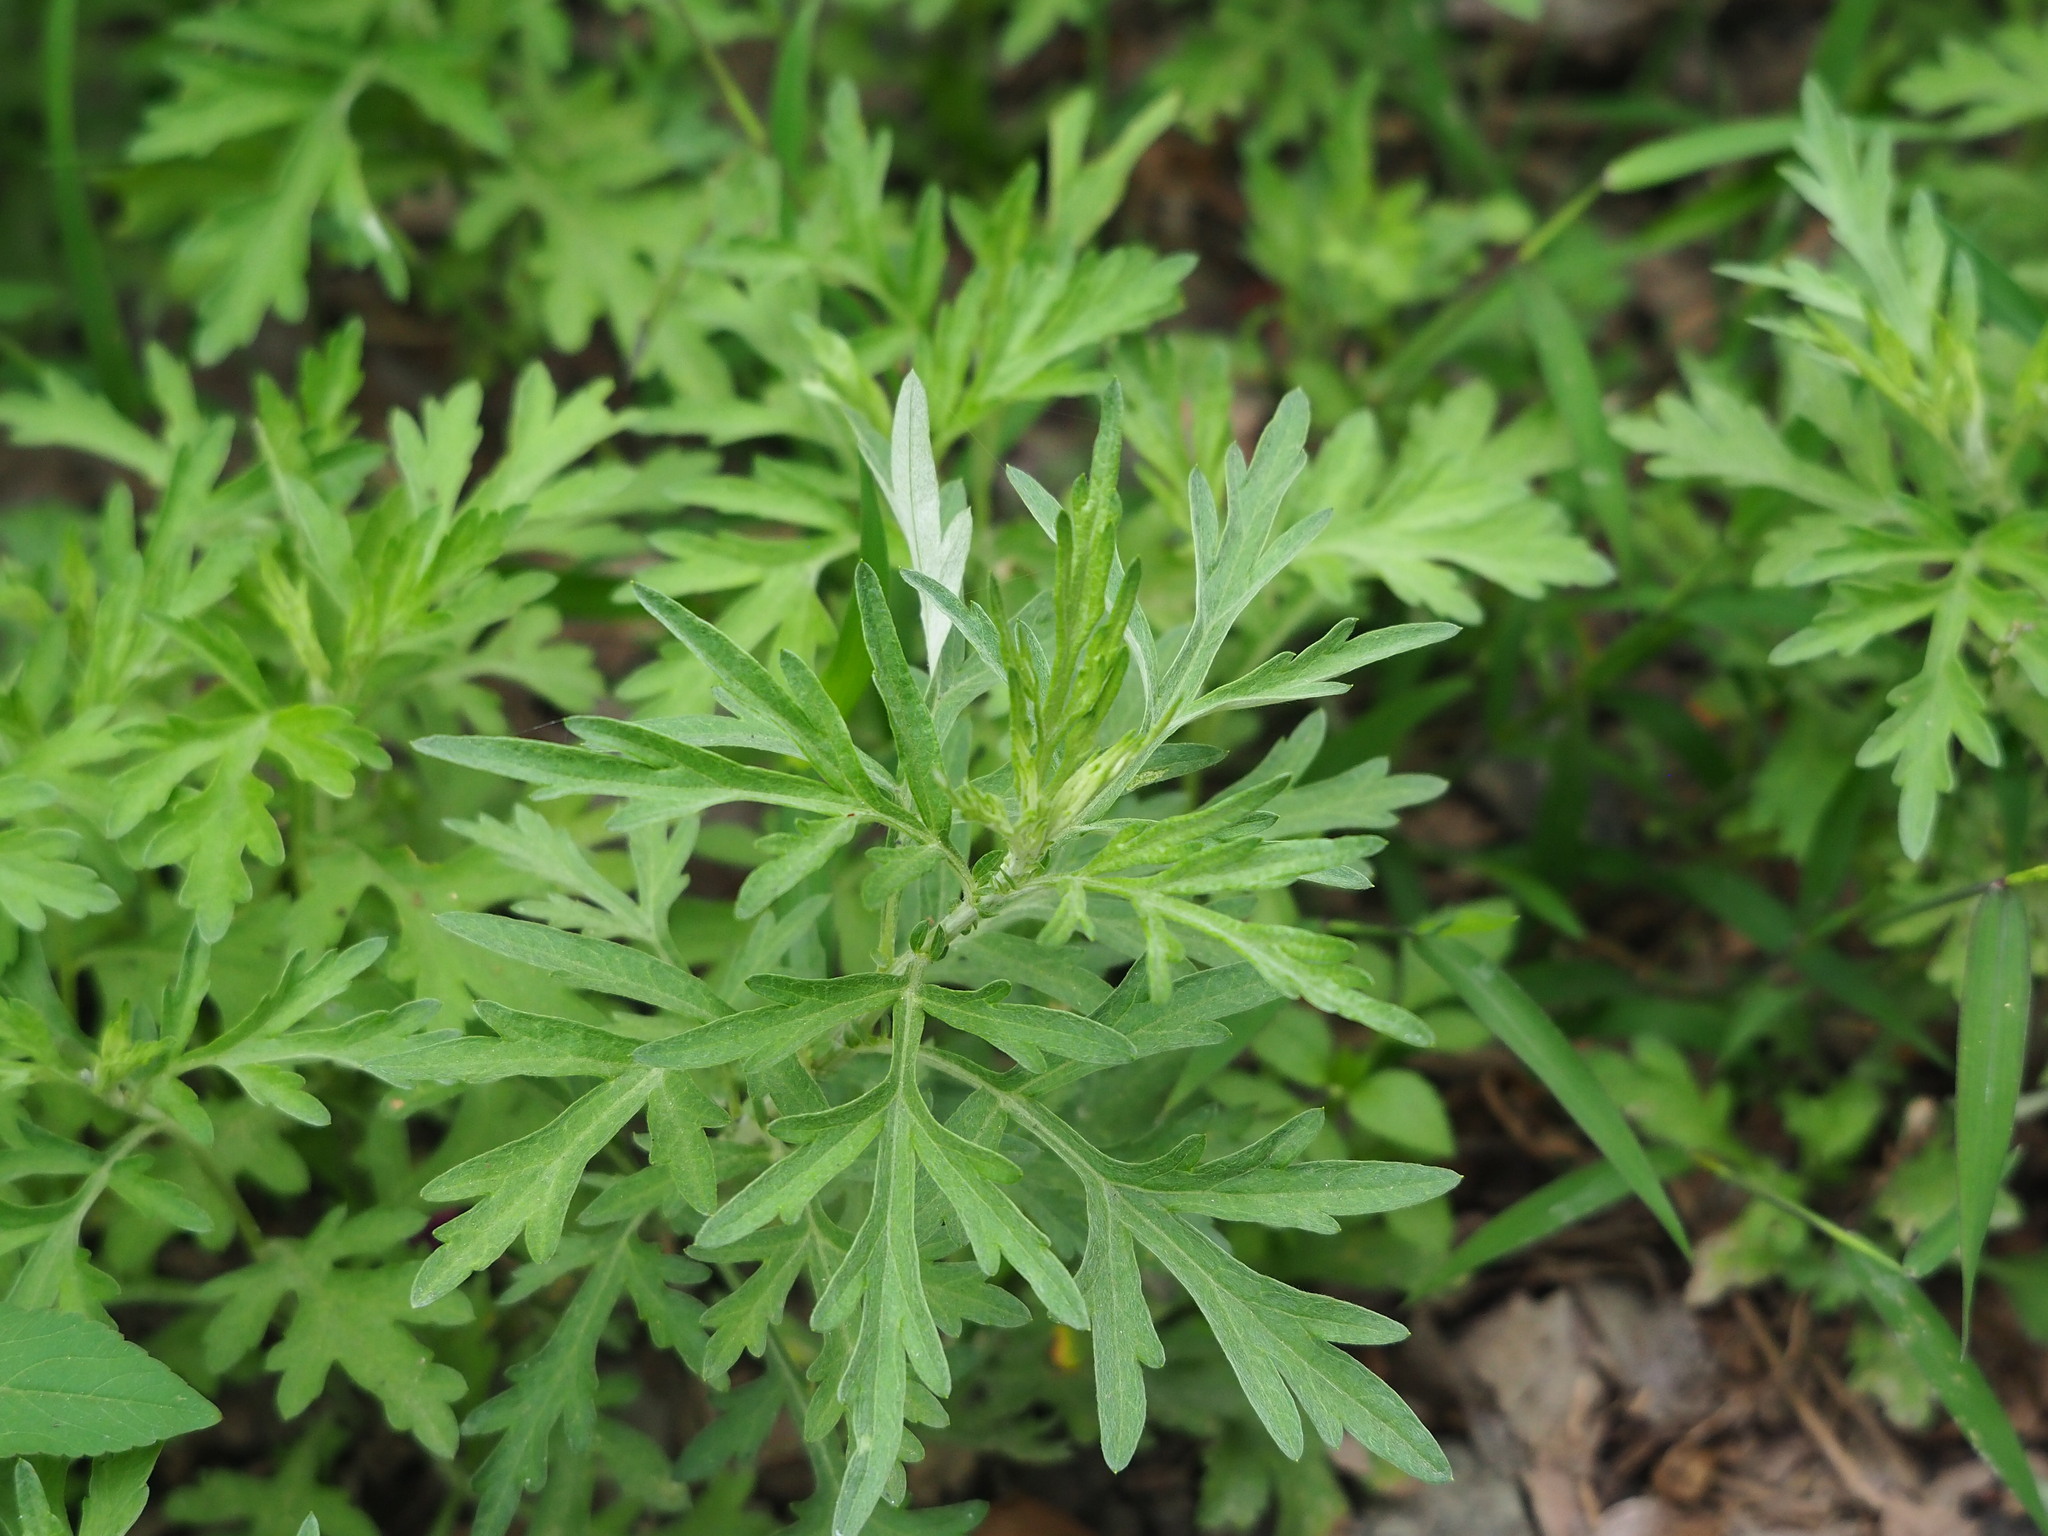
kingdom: Plantae
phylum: Tracheophyta
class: Magnoliopsida
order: Asterales
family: Asteraceae
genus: Artemisia
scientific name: Artemisia indica
